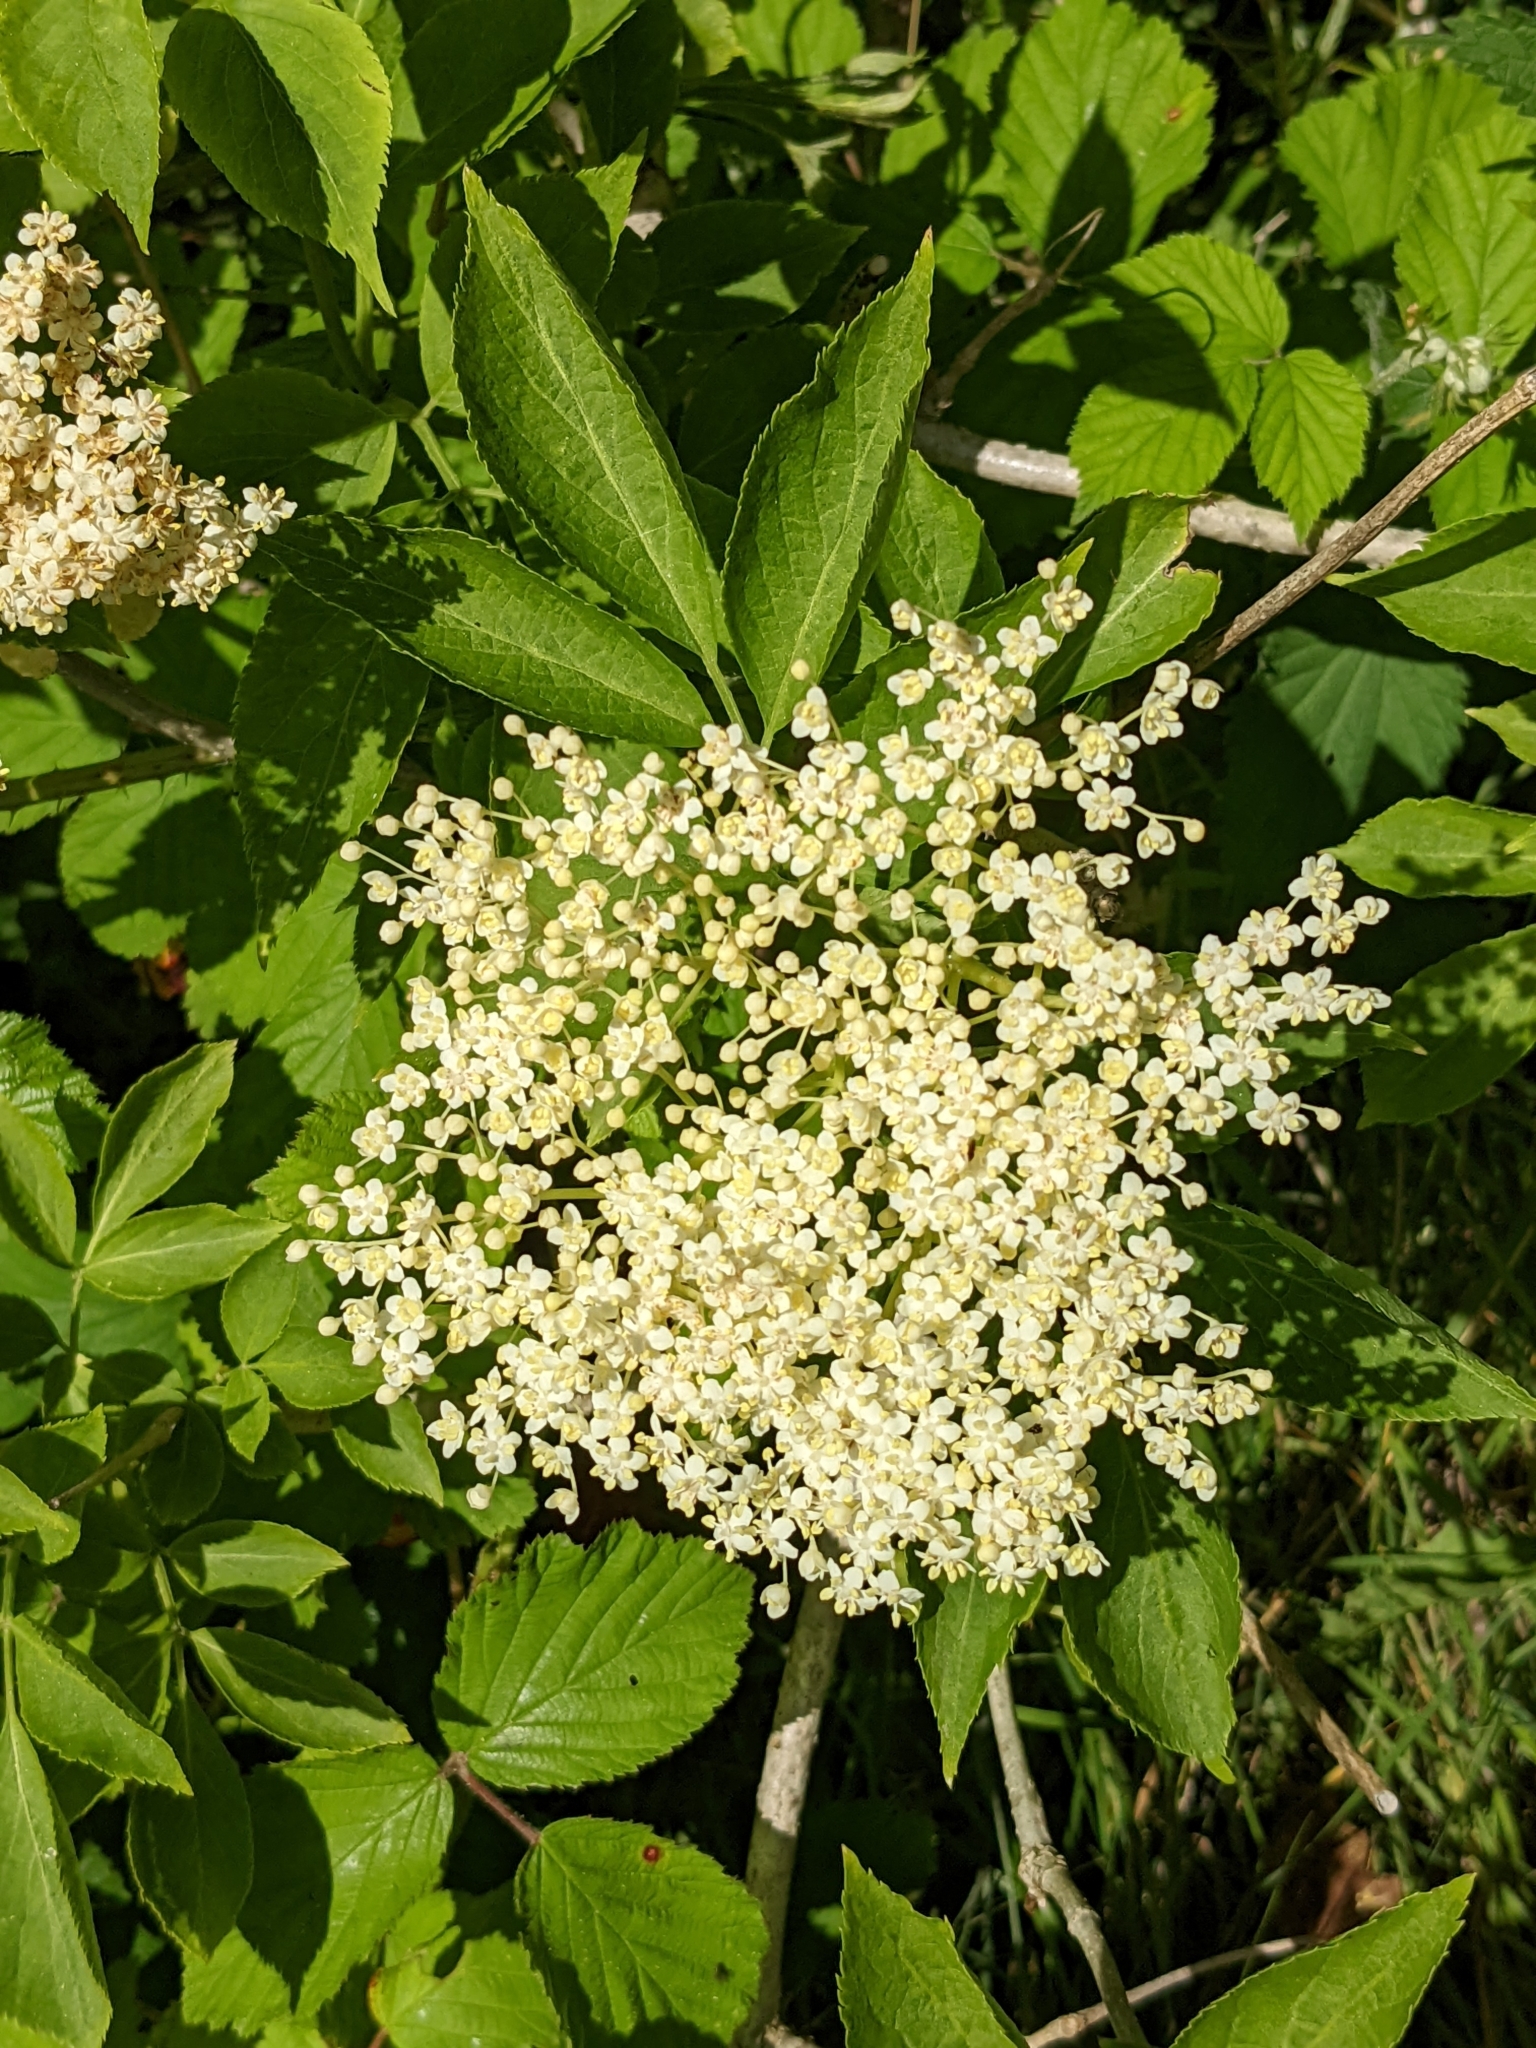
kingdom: Plantae
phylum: Tracheophyta
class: Magnoliopsida
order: Dipsacales
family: Viburnaceae
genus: Sambucus
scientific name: Sambucus nigra
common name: Elder
